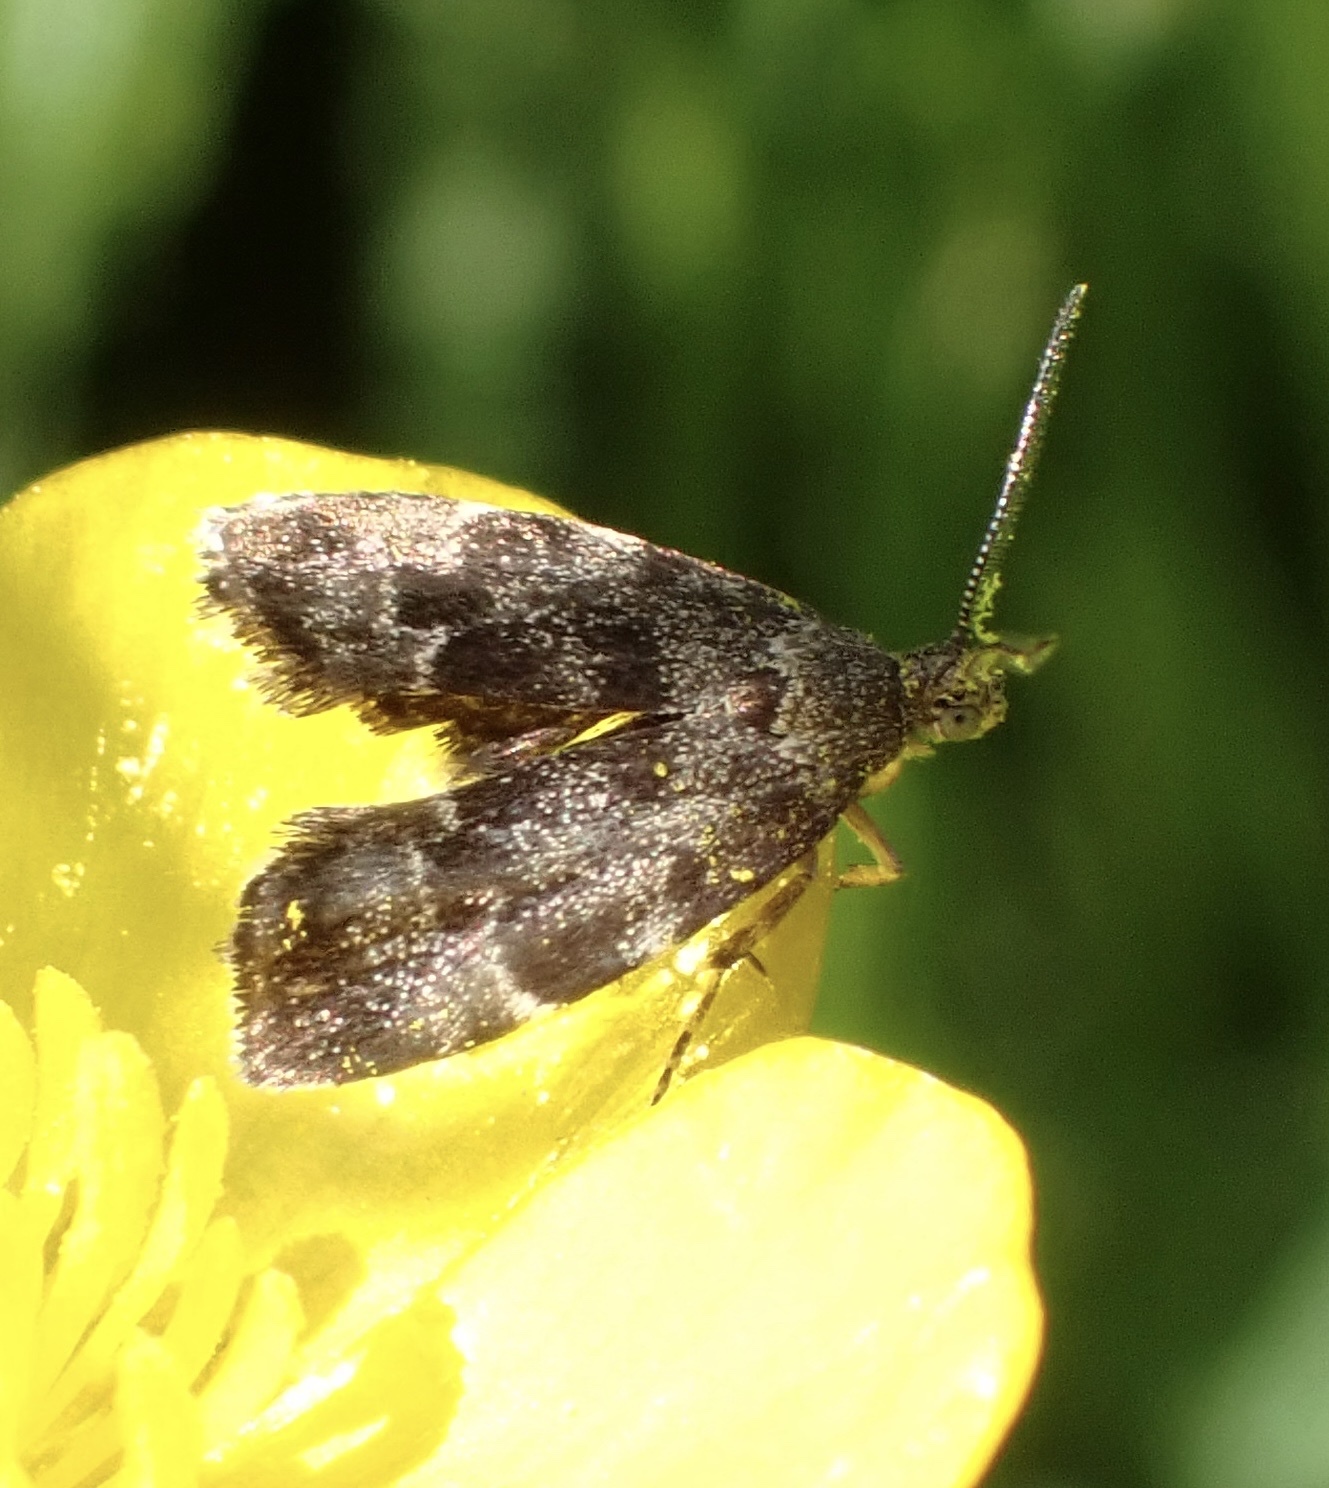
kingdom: Animalia
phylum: Arthropoda
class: Insecta
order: Lepidoptera
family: Choreutidae
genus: Anthophila
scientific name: Anthophila fabriciana
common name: Nettle-tap
